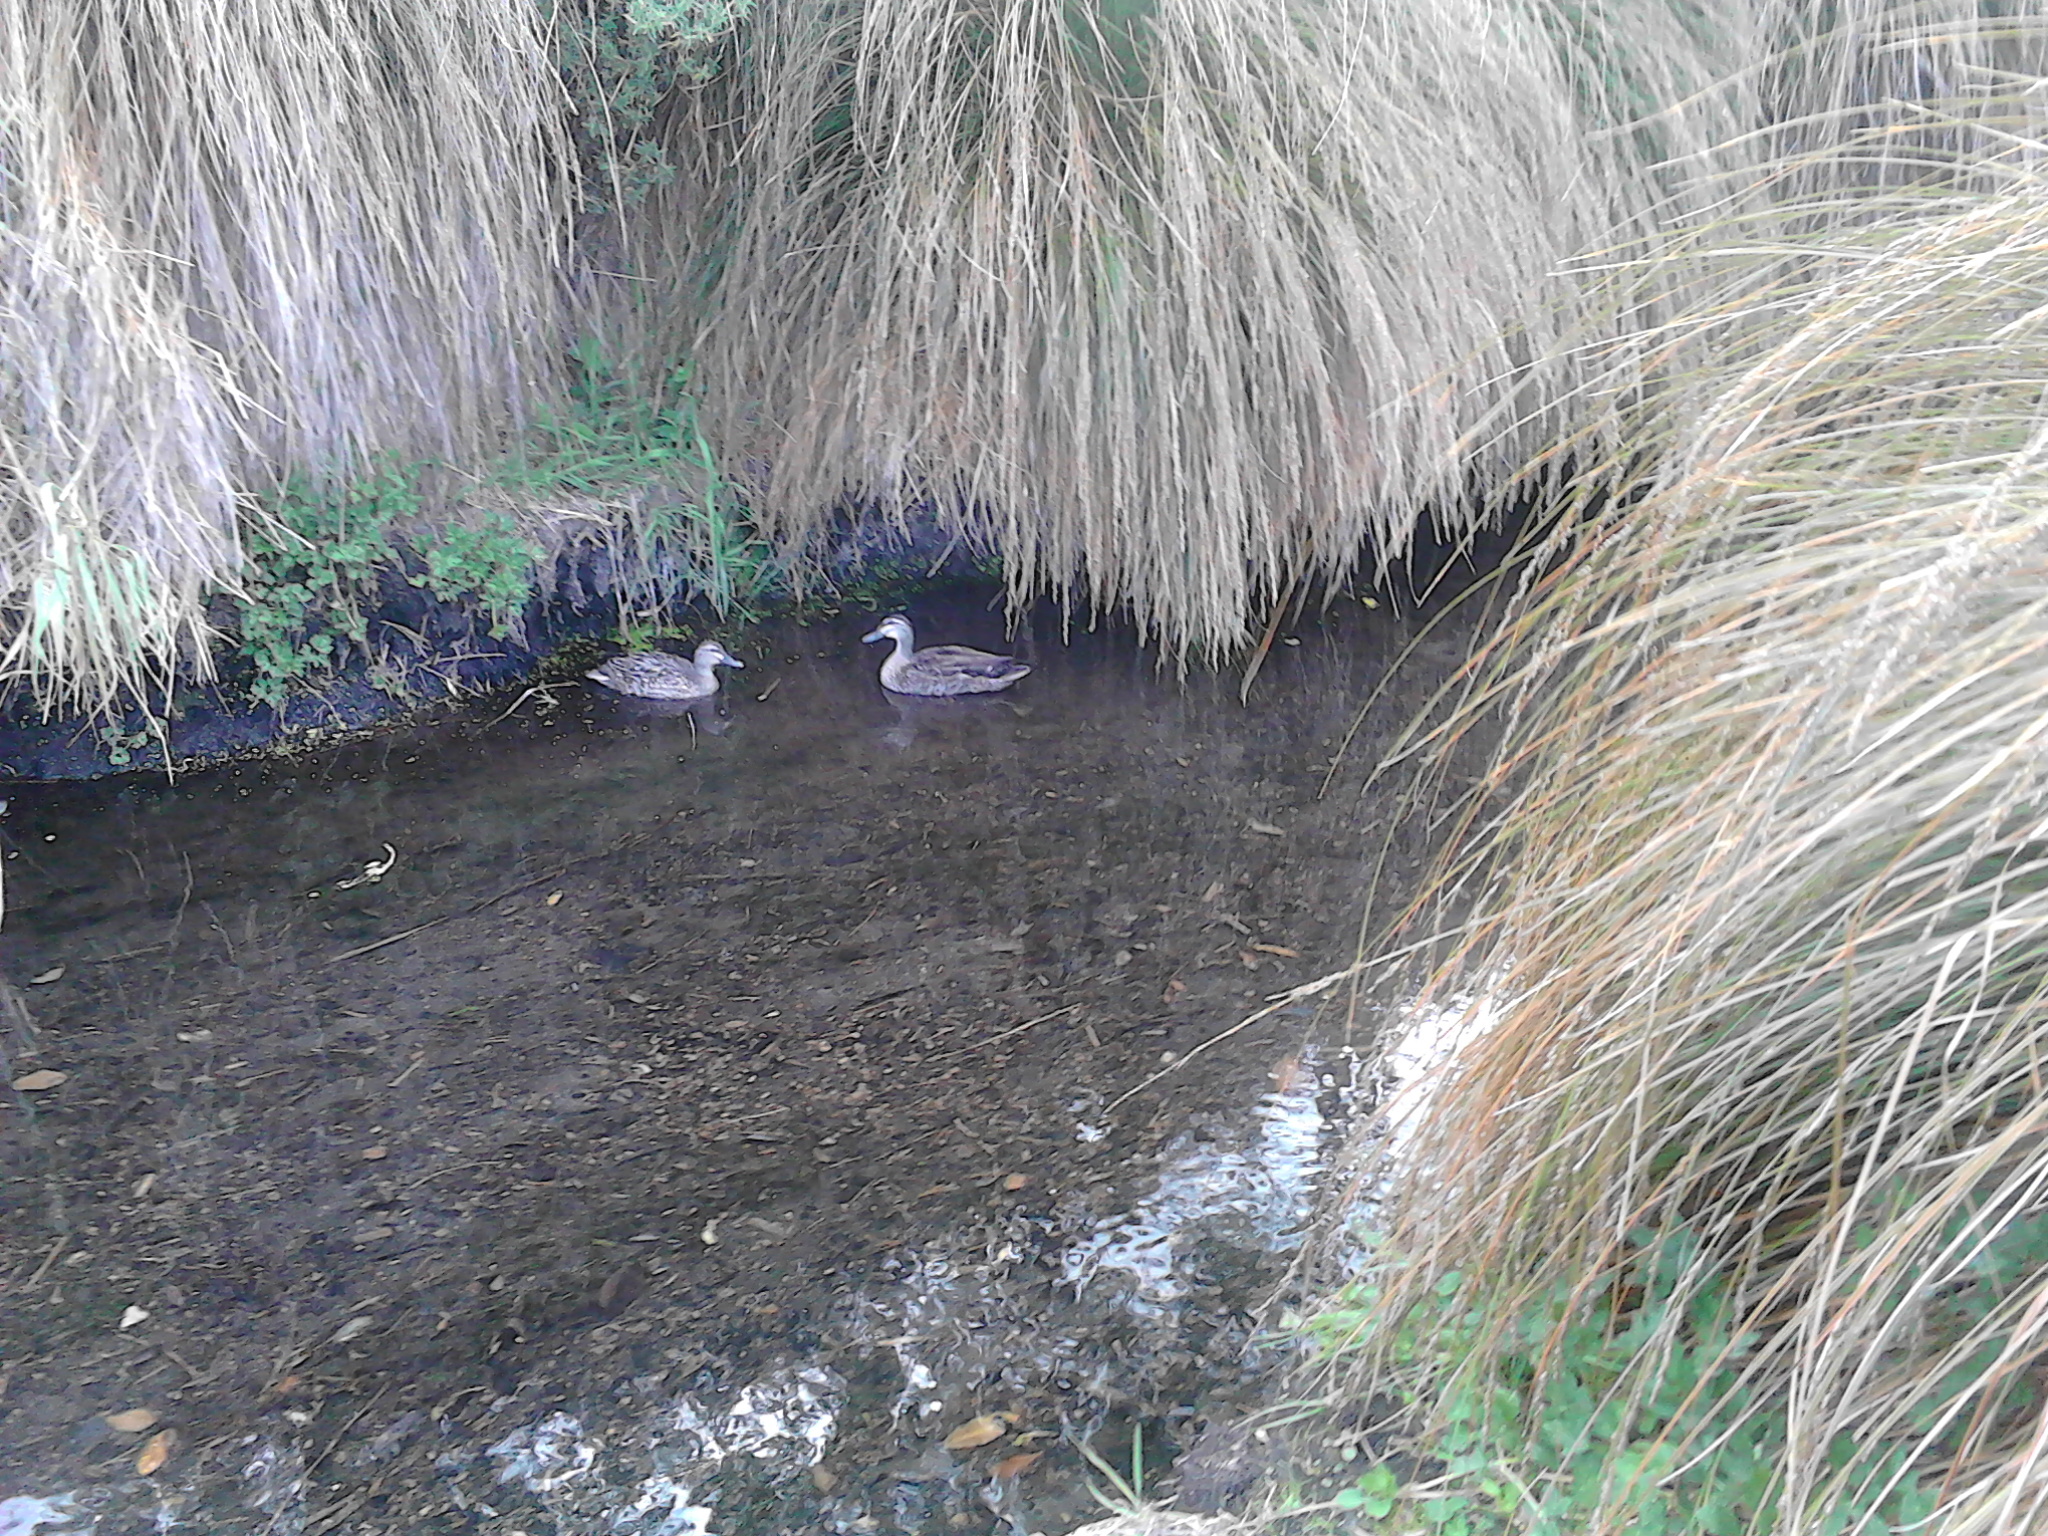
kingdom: Animalia
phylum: Chordata
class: Aves
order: Anseriformes
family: Anatidae
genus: Anas
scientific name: Anas
